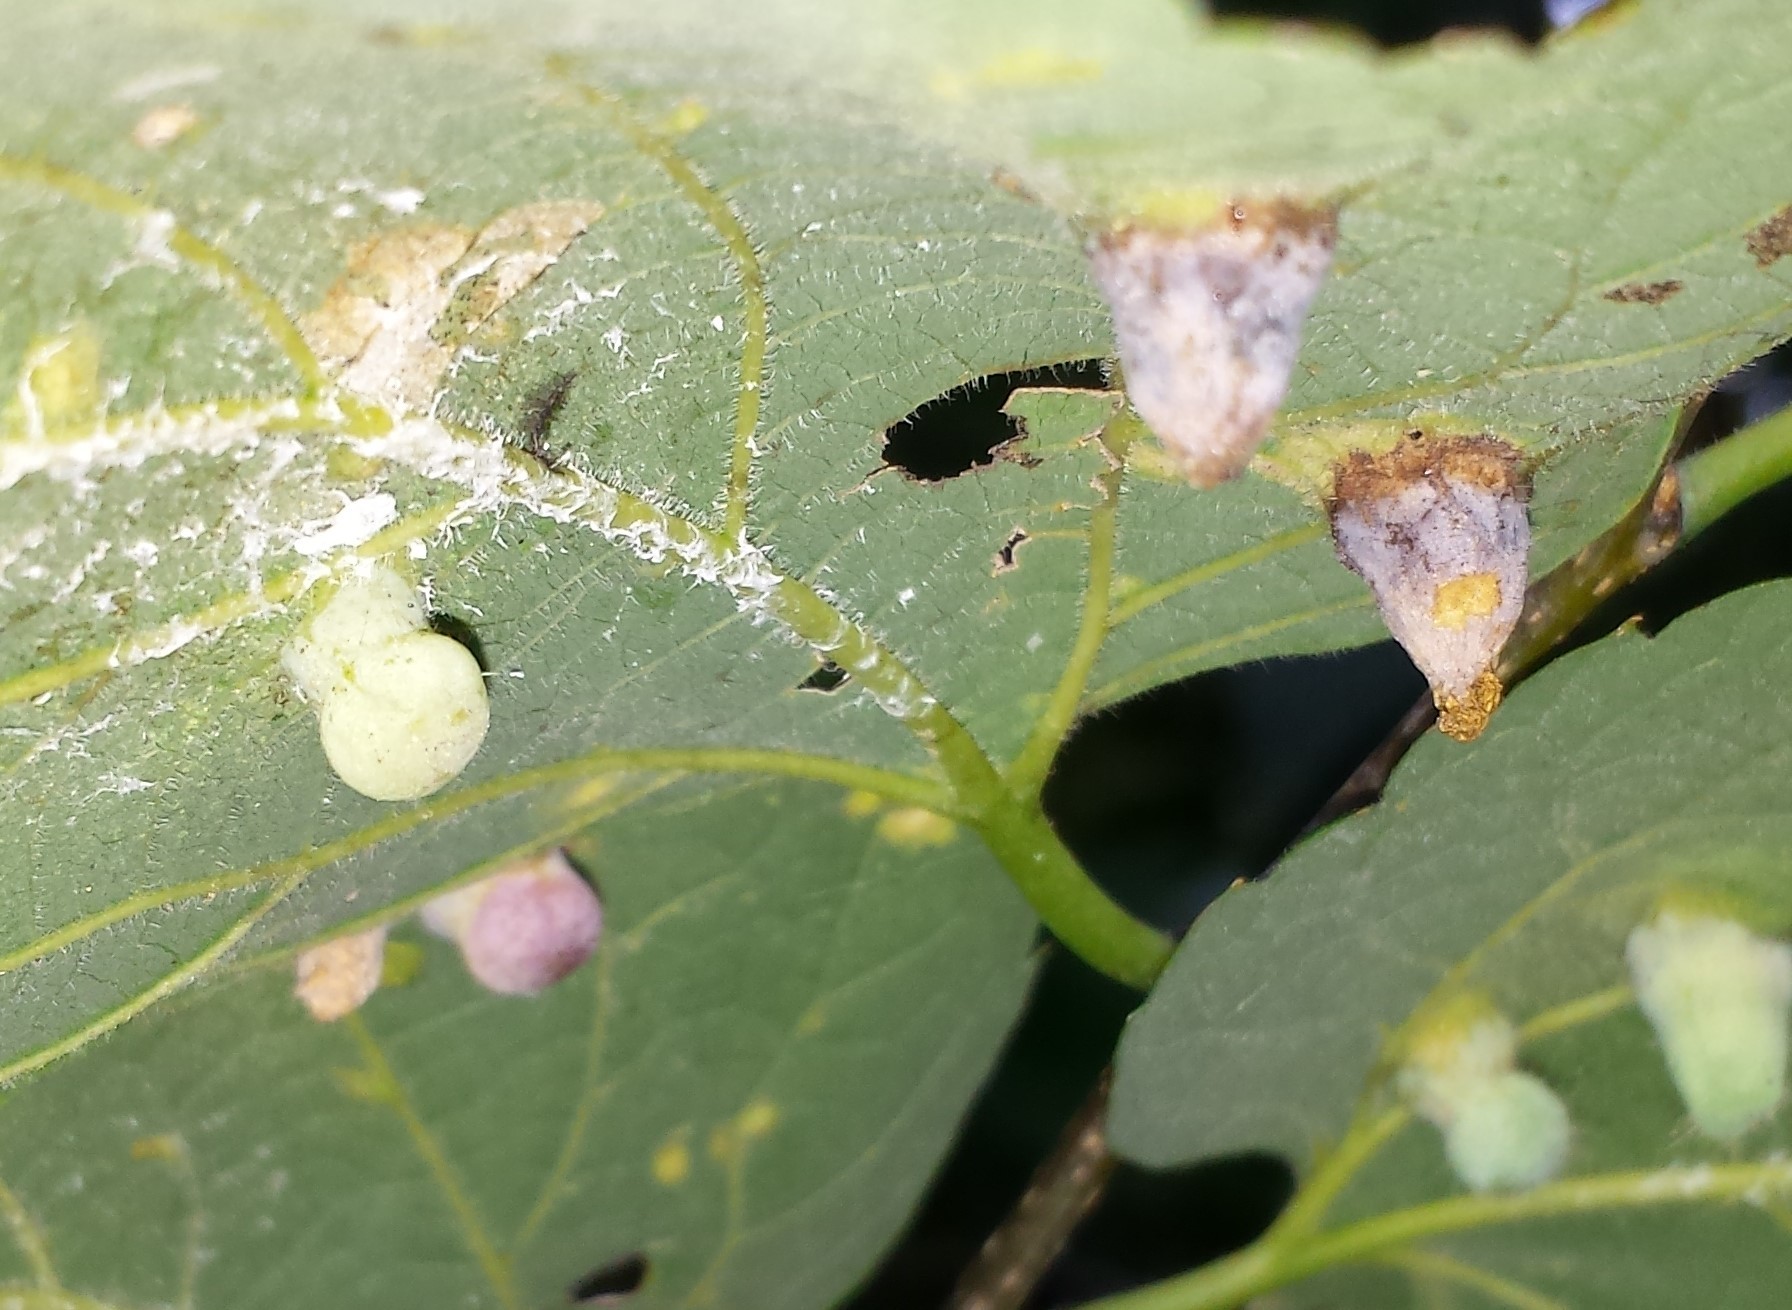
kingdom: Animalia
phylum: Arthropoda
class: Insecta
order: Hemiptera
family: Aphalaridae
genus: Pachypsylla
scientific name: Pachypsylla celtidismamma
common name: Hackberry nipplegall psyllid
